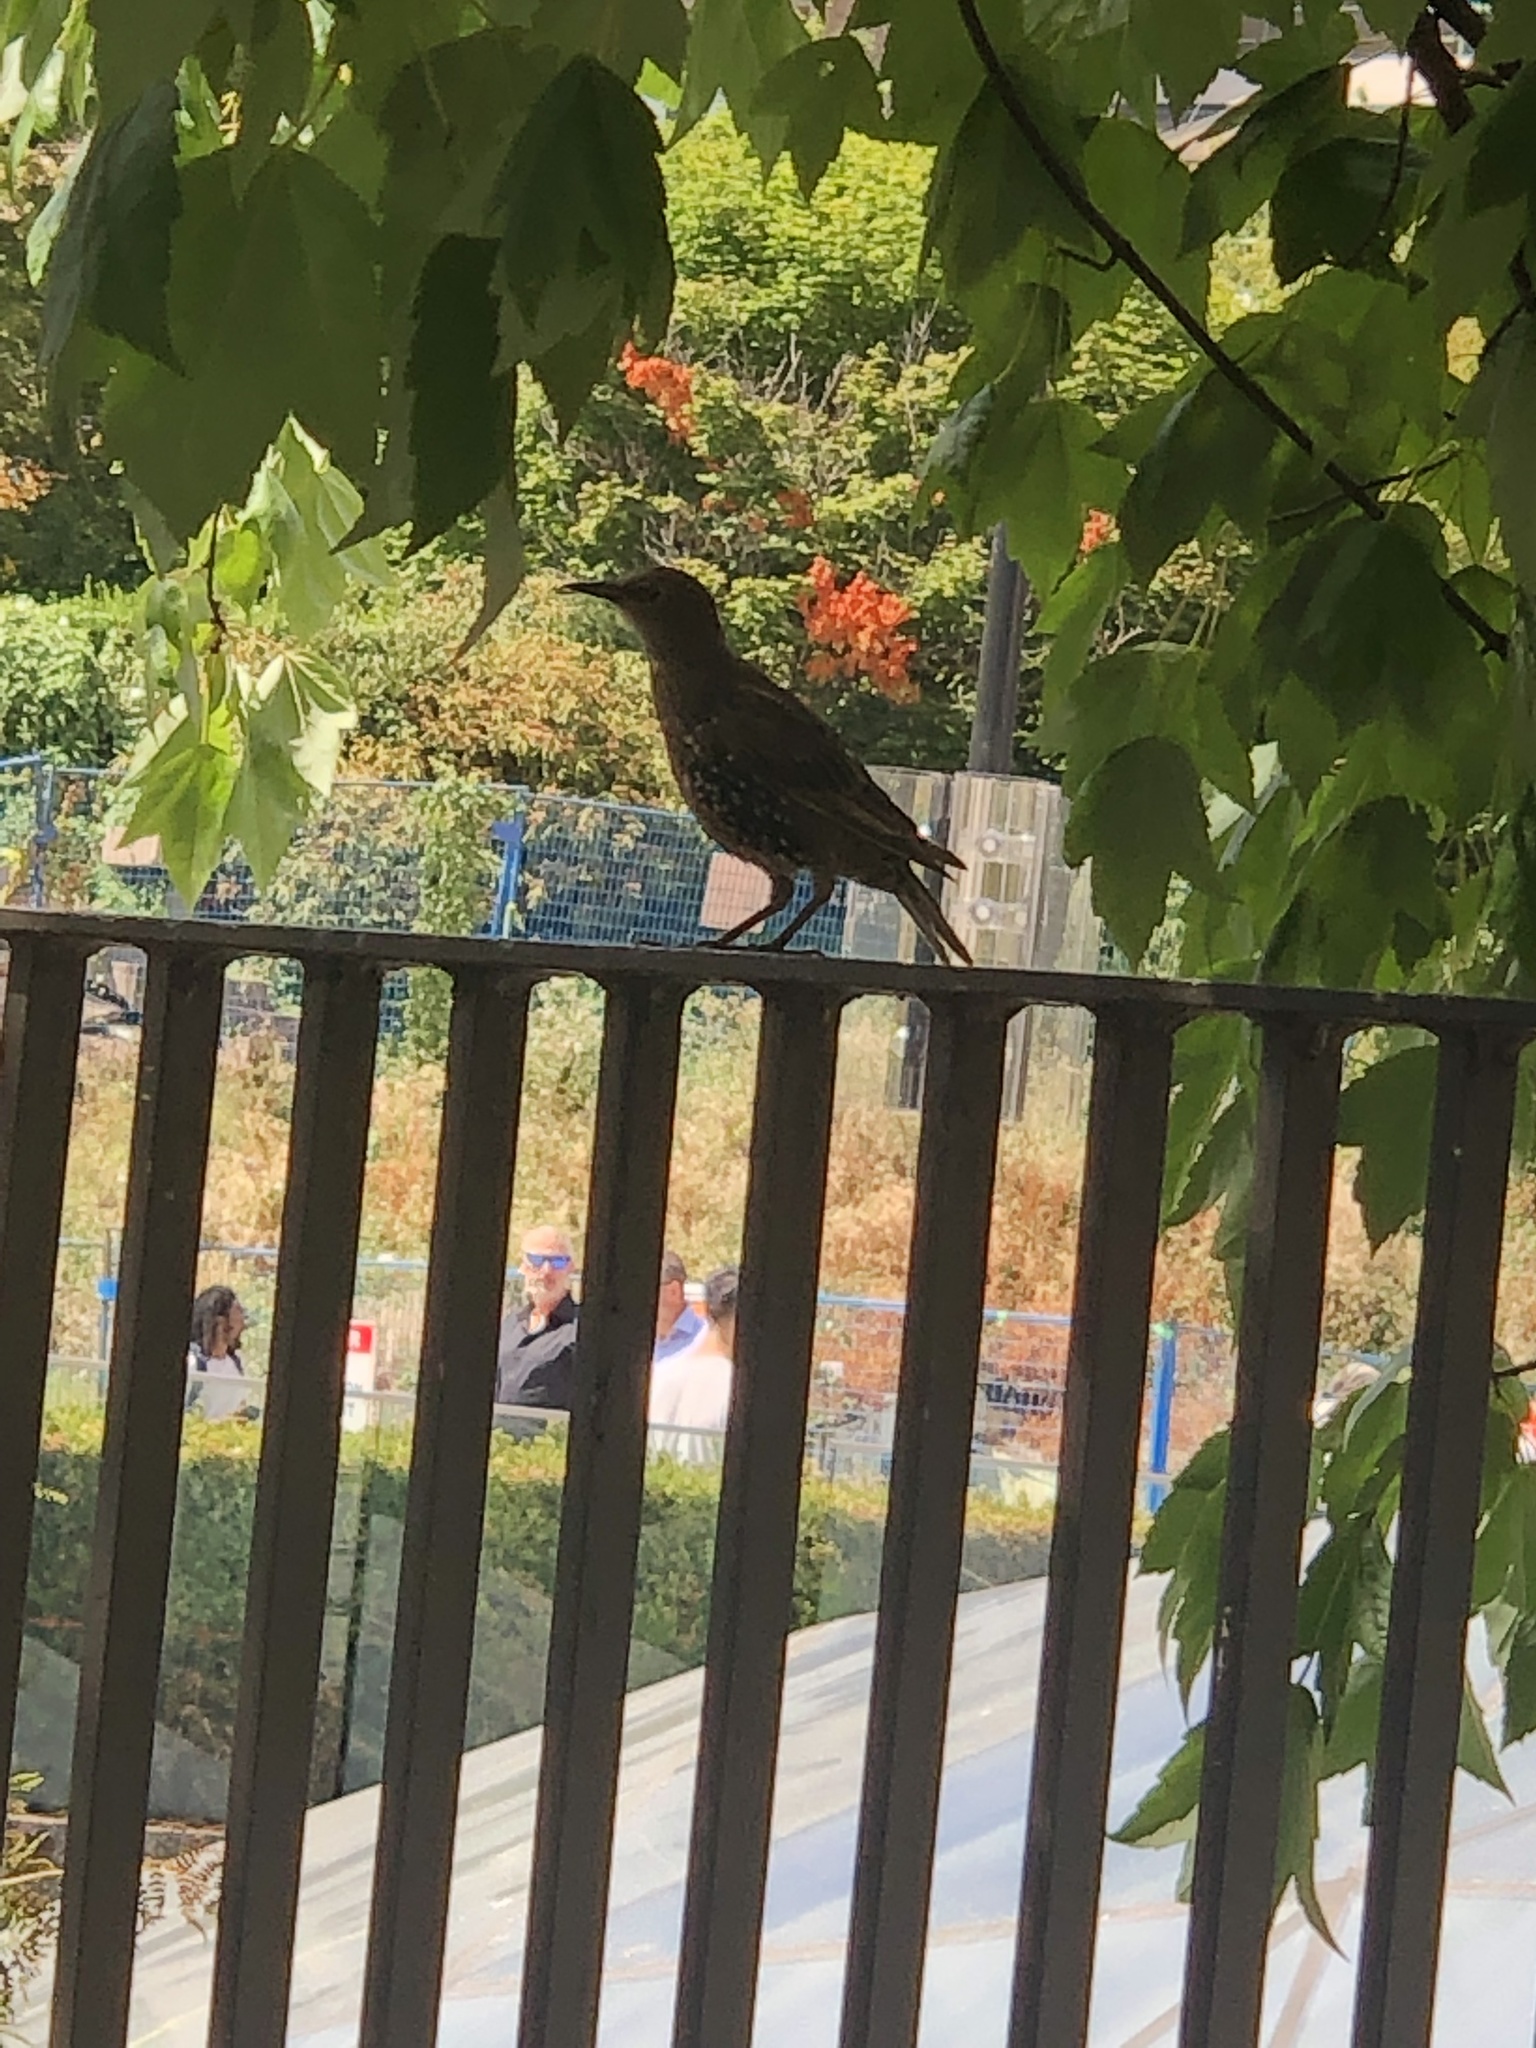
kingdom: Animalia
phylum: Chordata
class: Aves
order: Passeriformes
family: Sturnidae
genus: Sturnus
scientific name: Sturnus vulgaris
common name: Common starling
